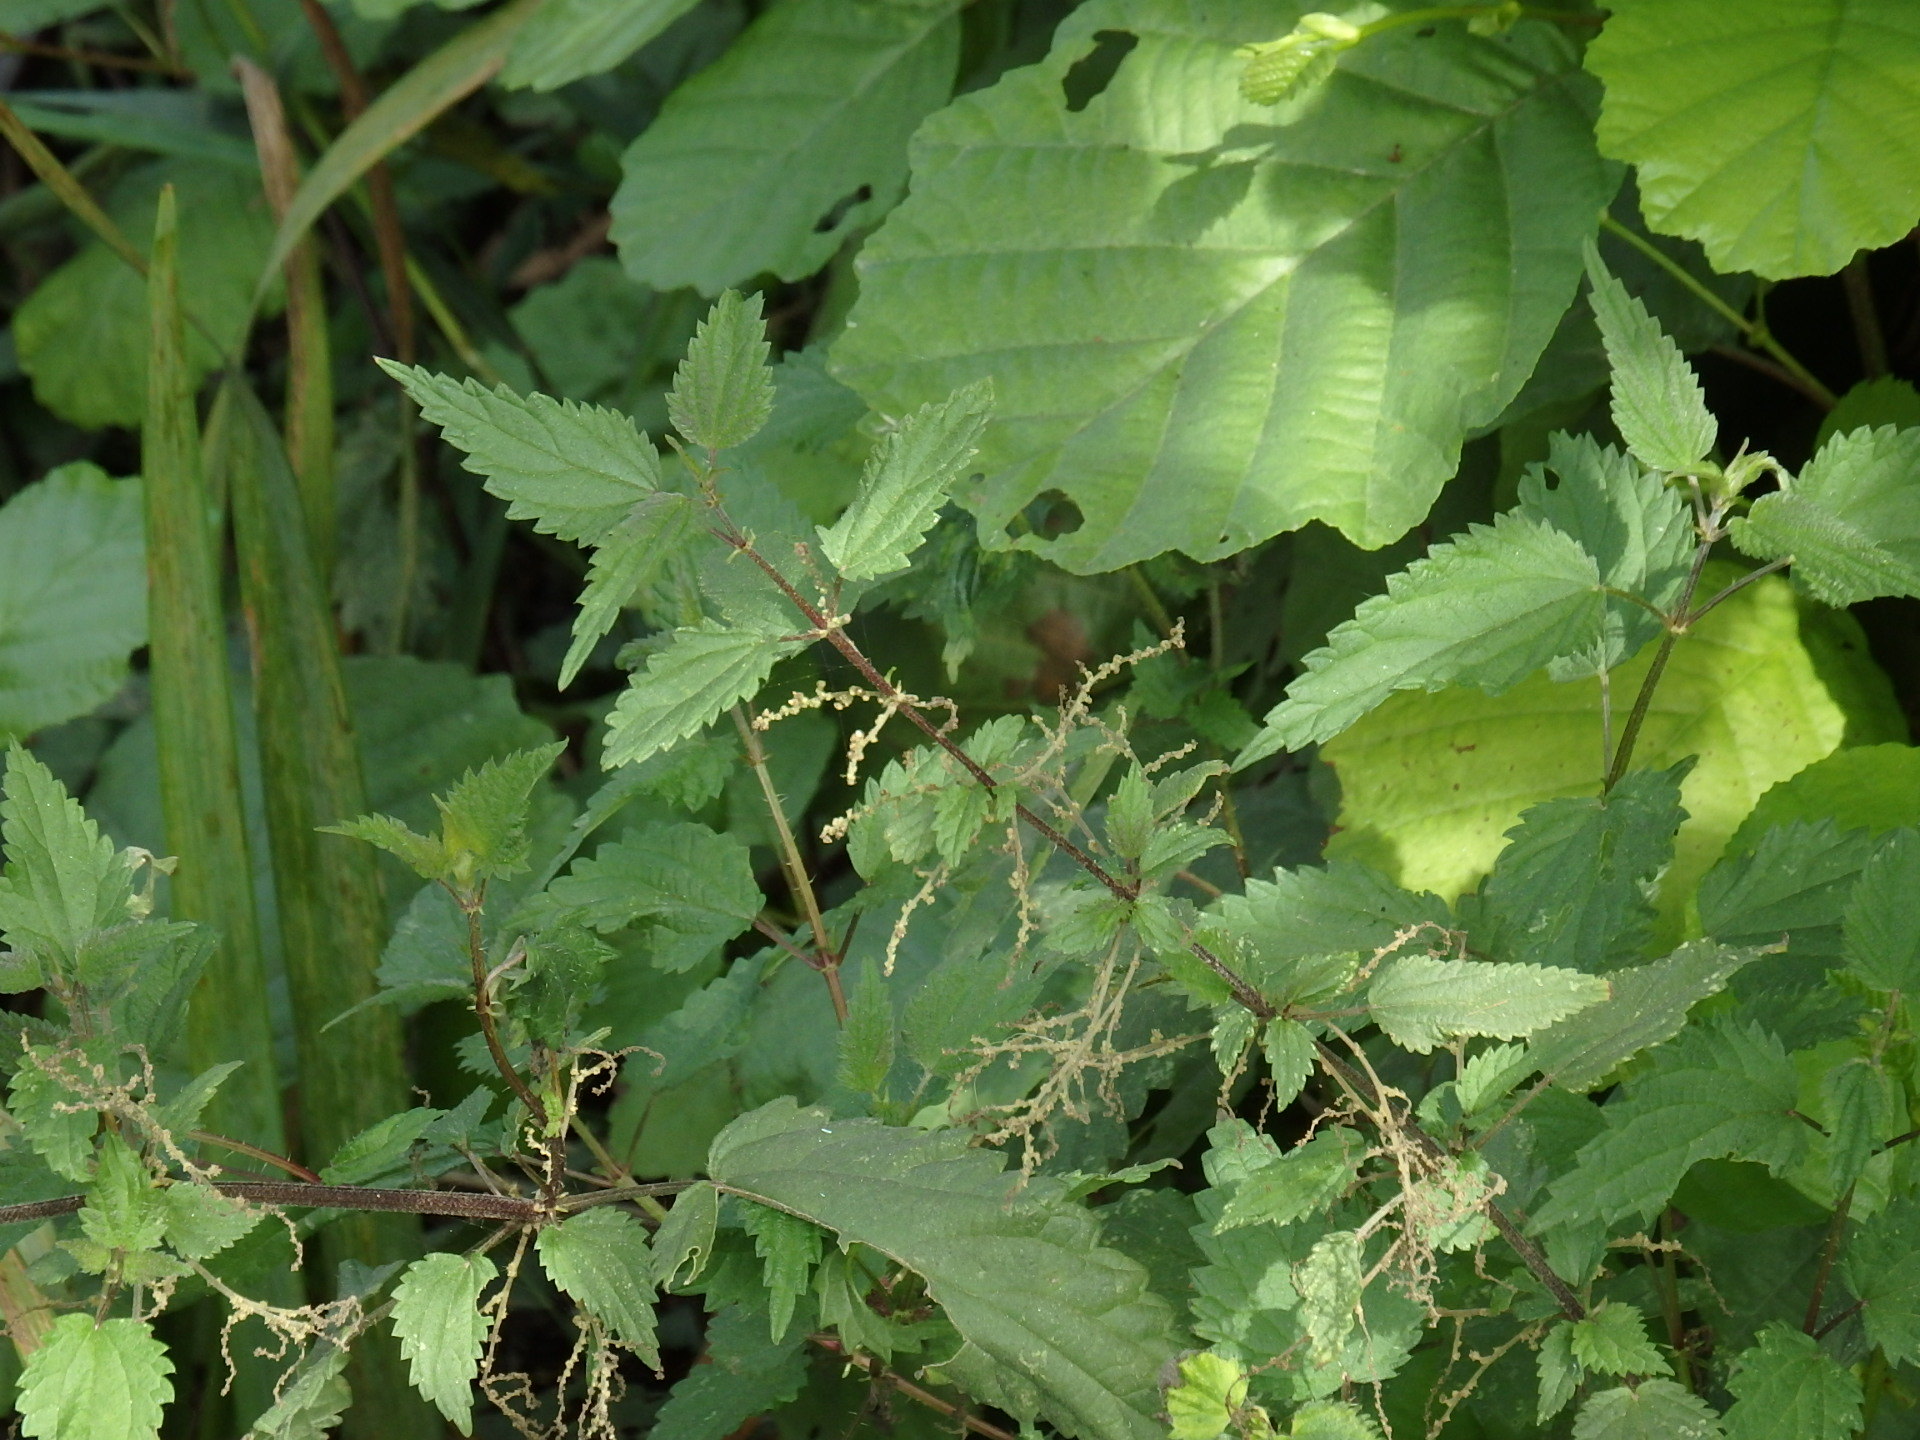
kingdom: Plantae
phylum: Tracheophyta
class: Magnoliopsida
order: Rosales
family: Urticaceae
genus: Urtica
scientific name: Urtica dioica
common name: Common nettle
